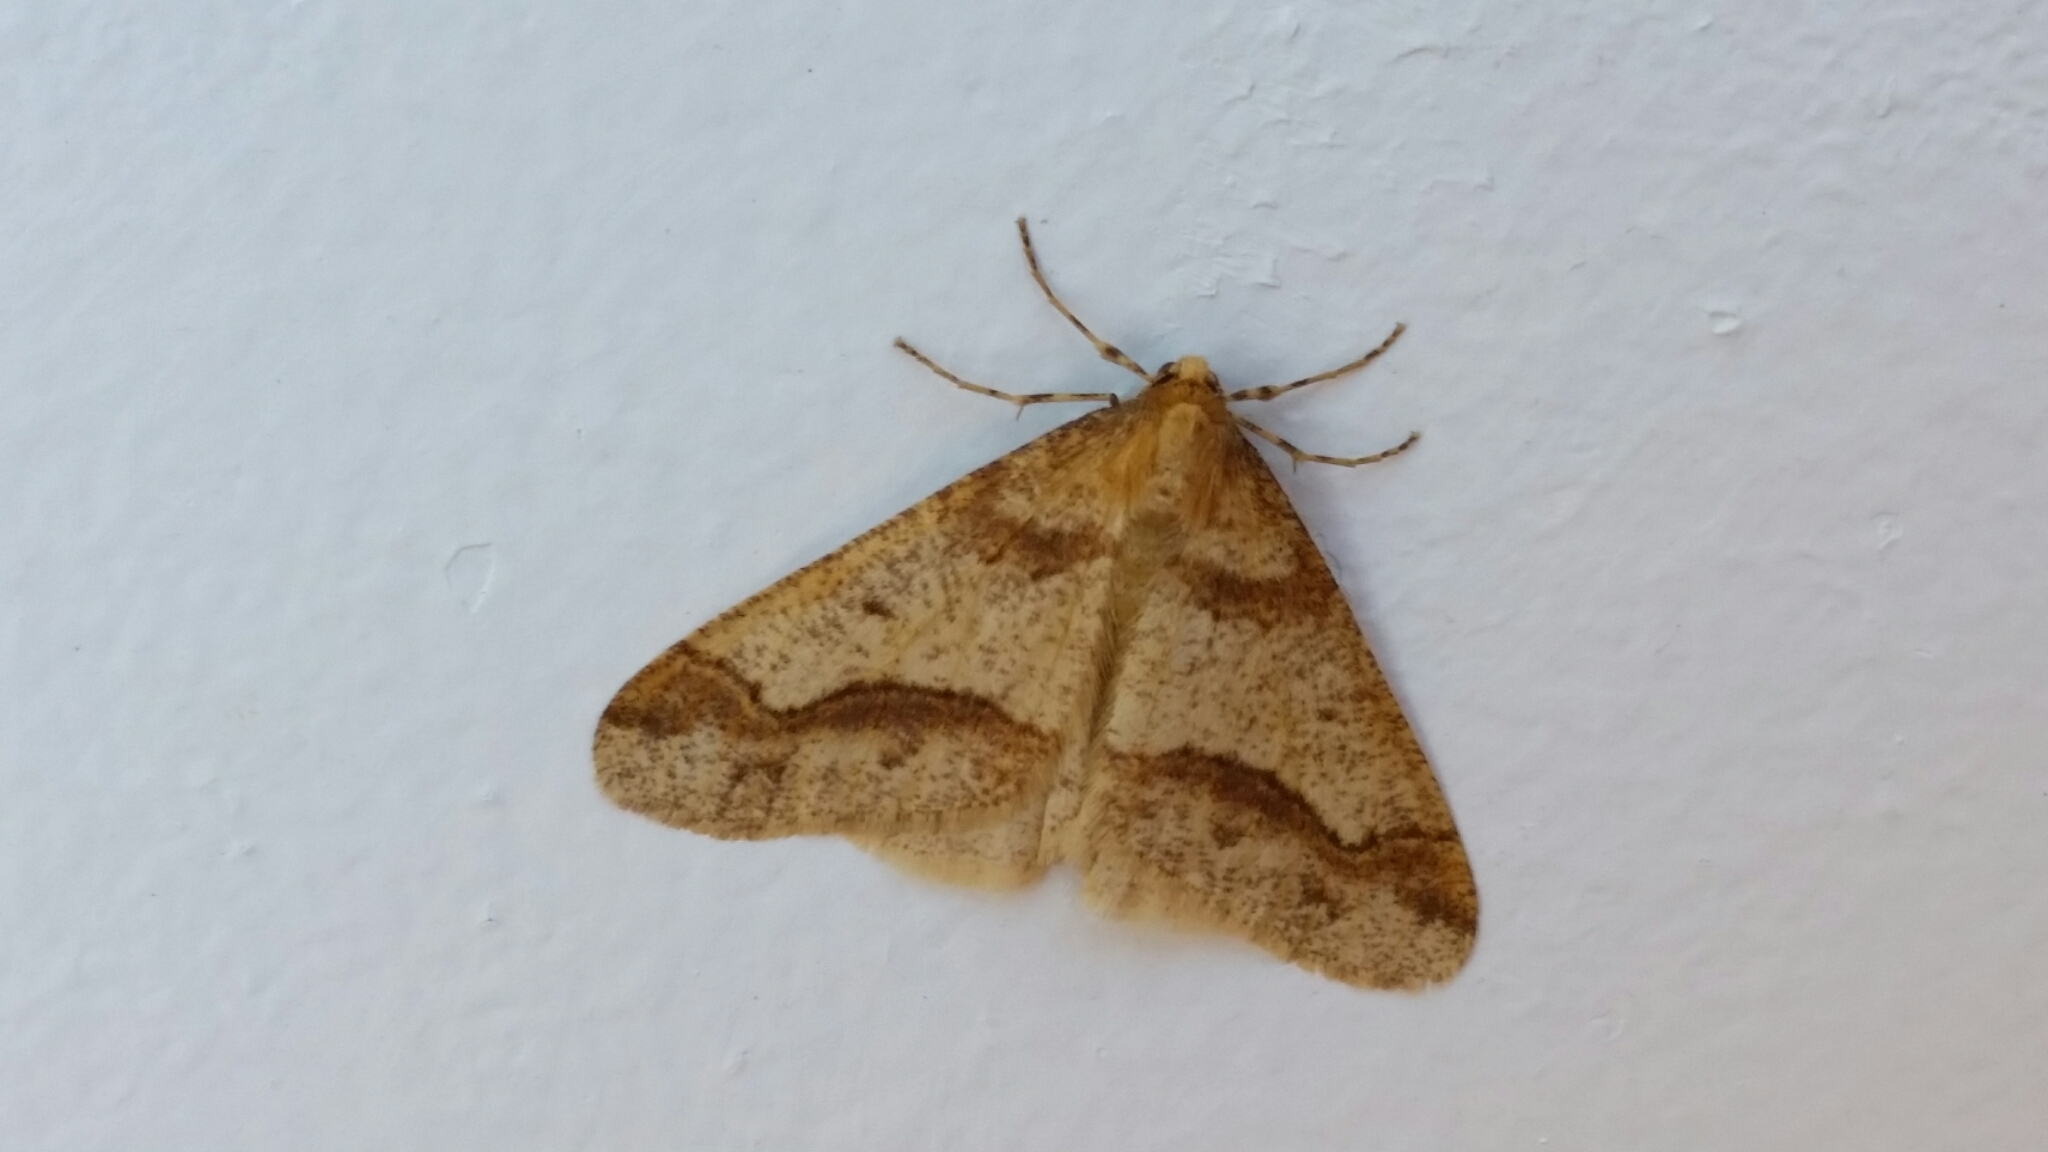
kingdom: Animalia
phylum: Arthropoda
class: Insecta
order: Lepidoptera
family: Geometridae
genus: Erannis
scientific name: Erannis tiliaria
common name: Linden looper
